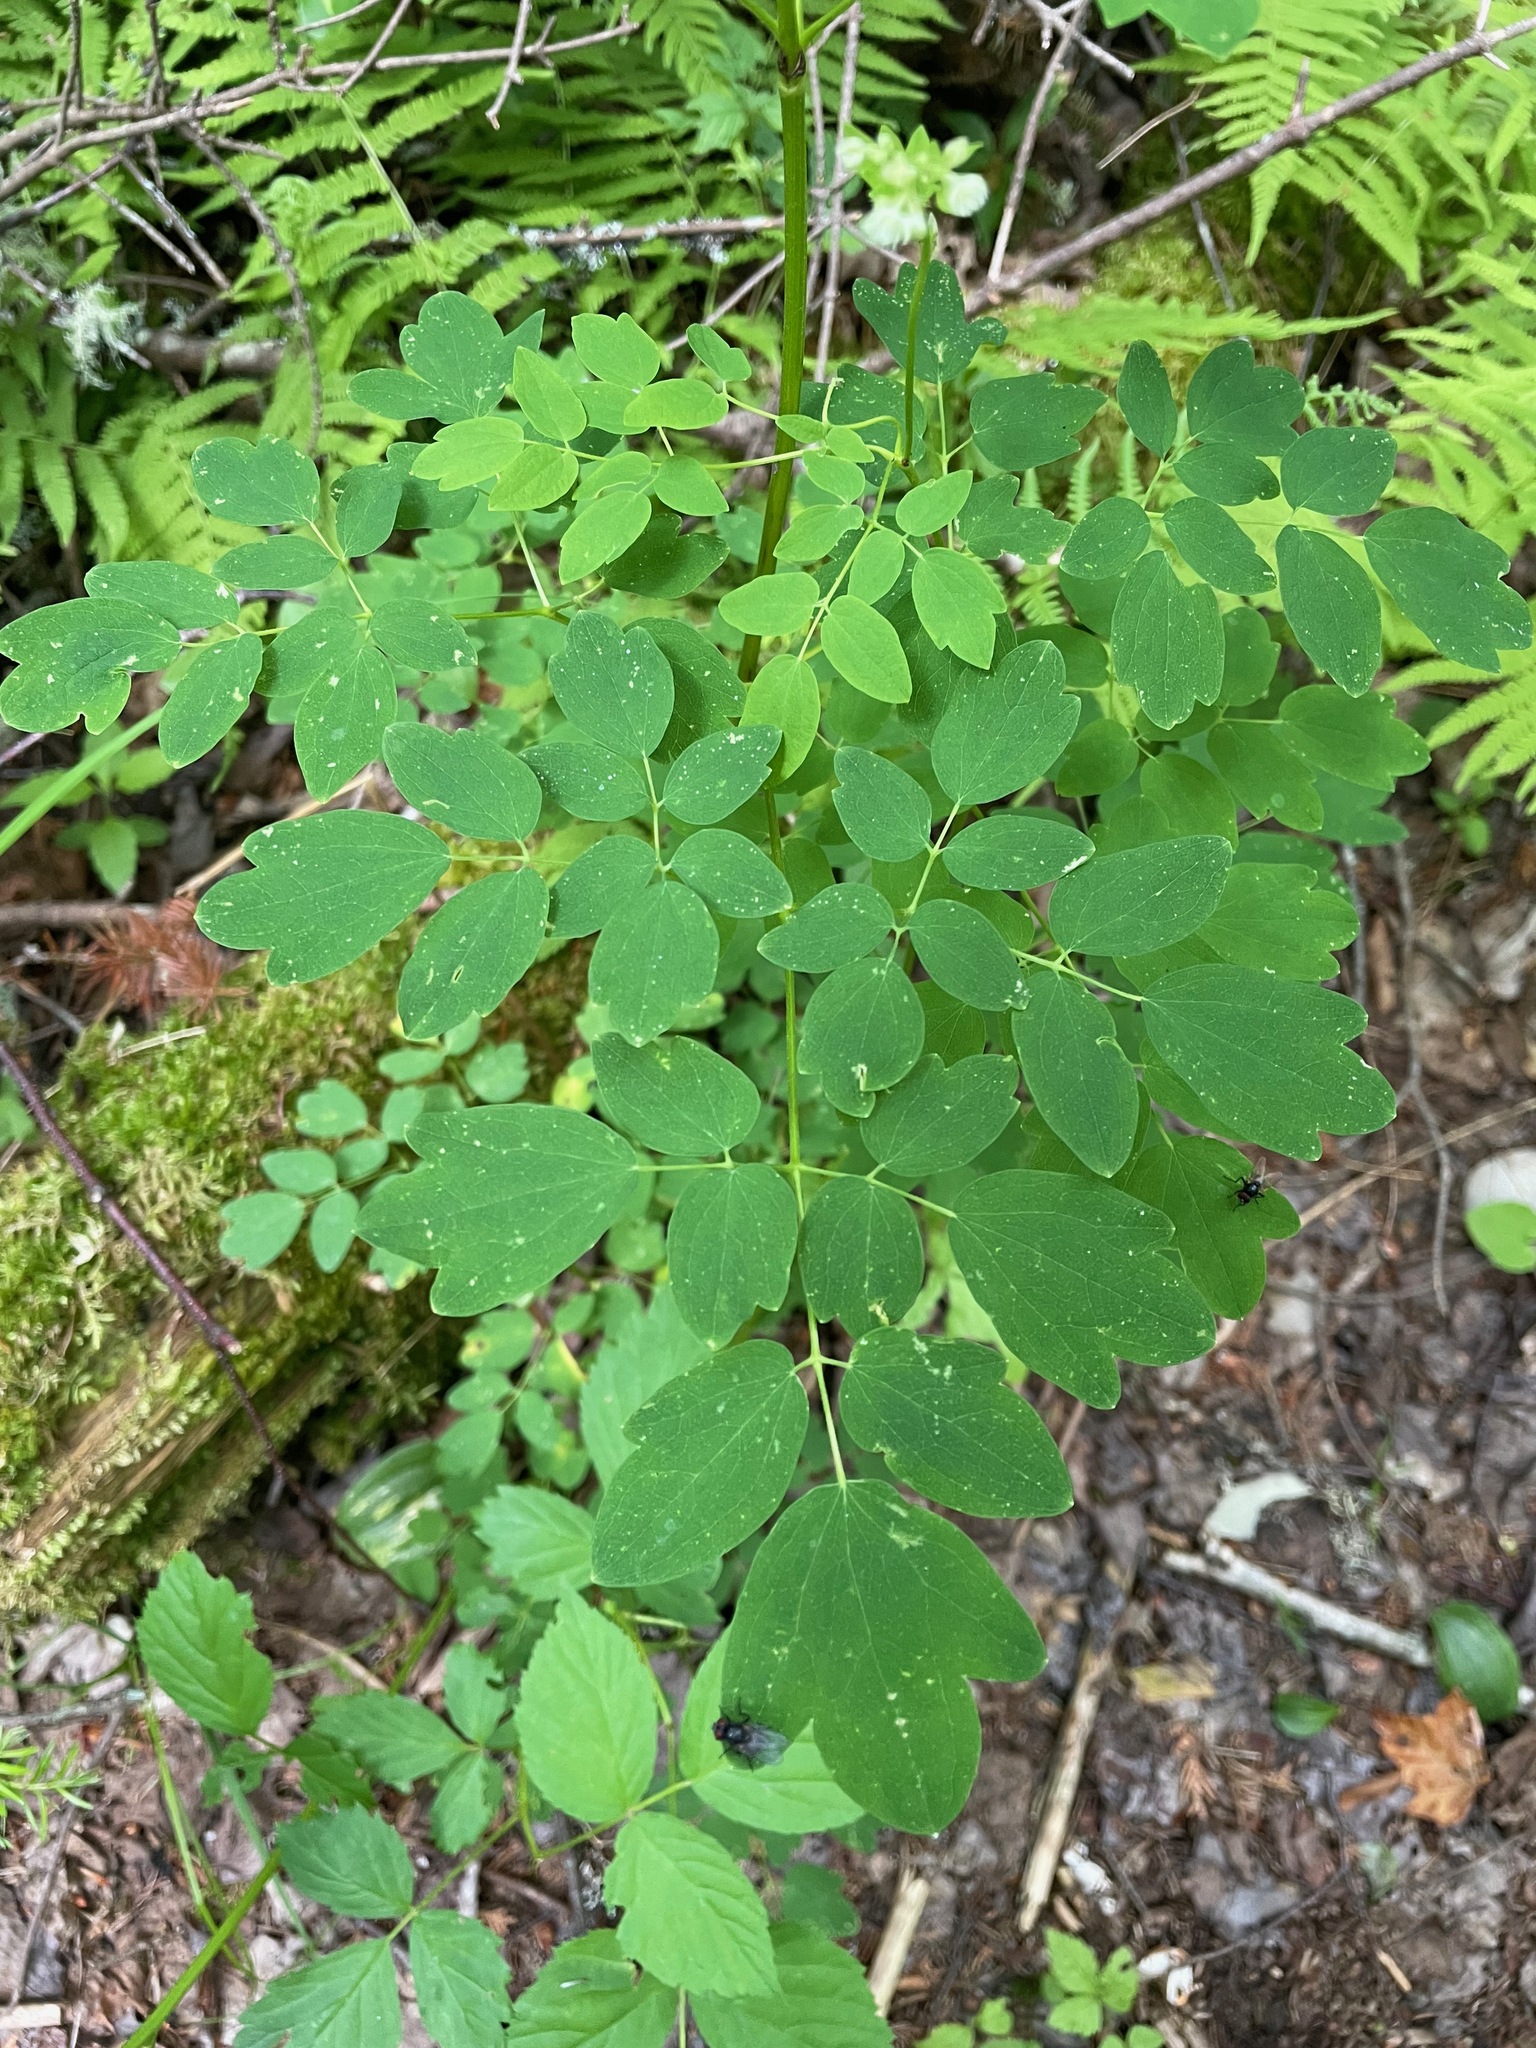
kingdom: Plantae
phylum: Tracheophyta
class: Magnoliopsida
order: Ranunculales
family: Ranunculaceae
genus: Thalictrum
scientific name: Thalictrum pubescens
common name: King-of-the-meadow
